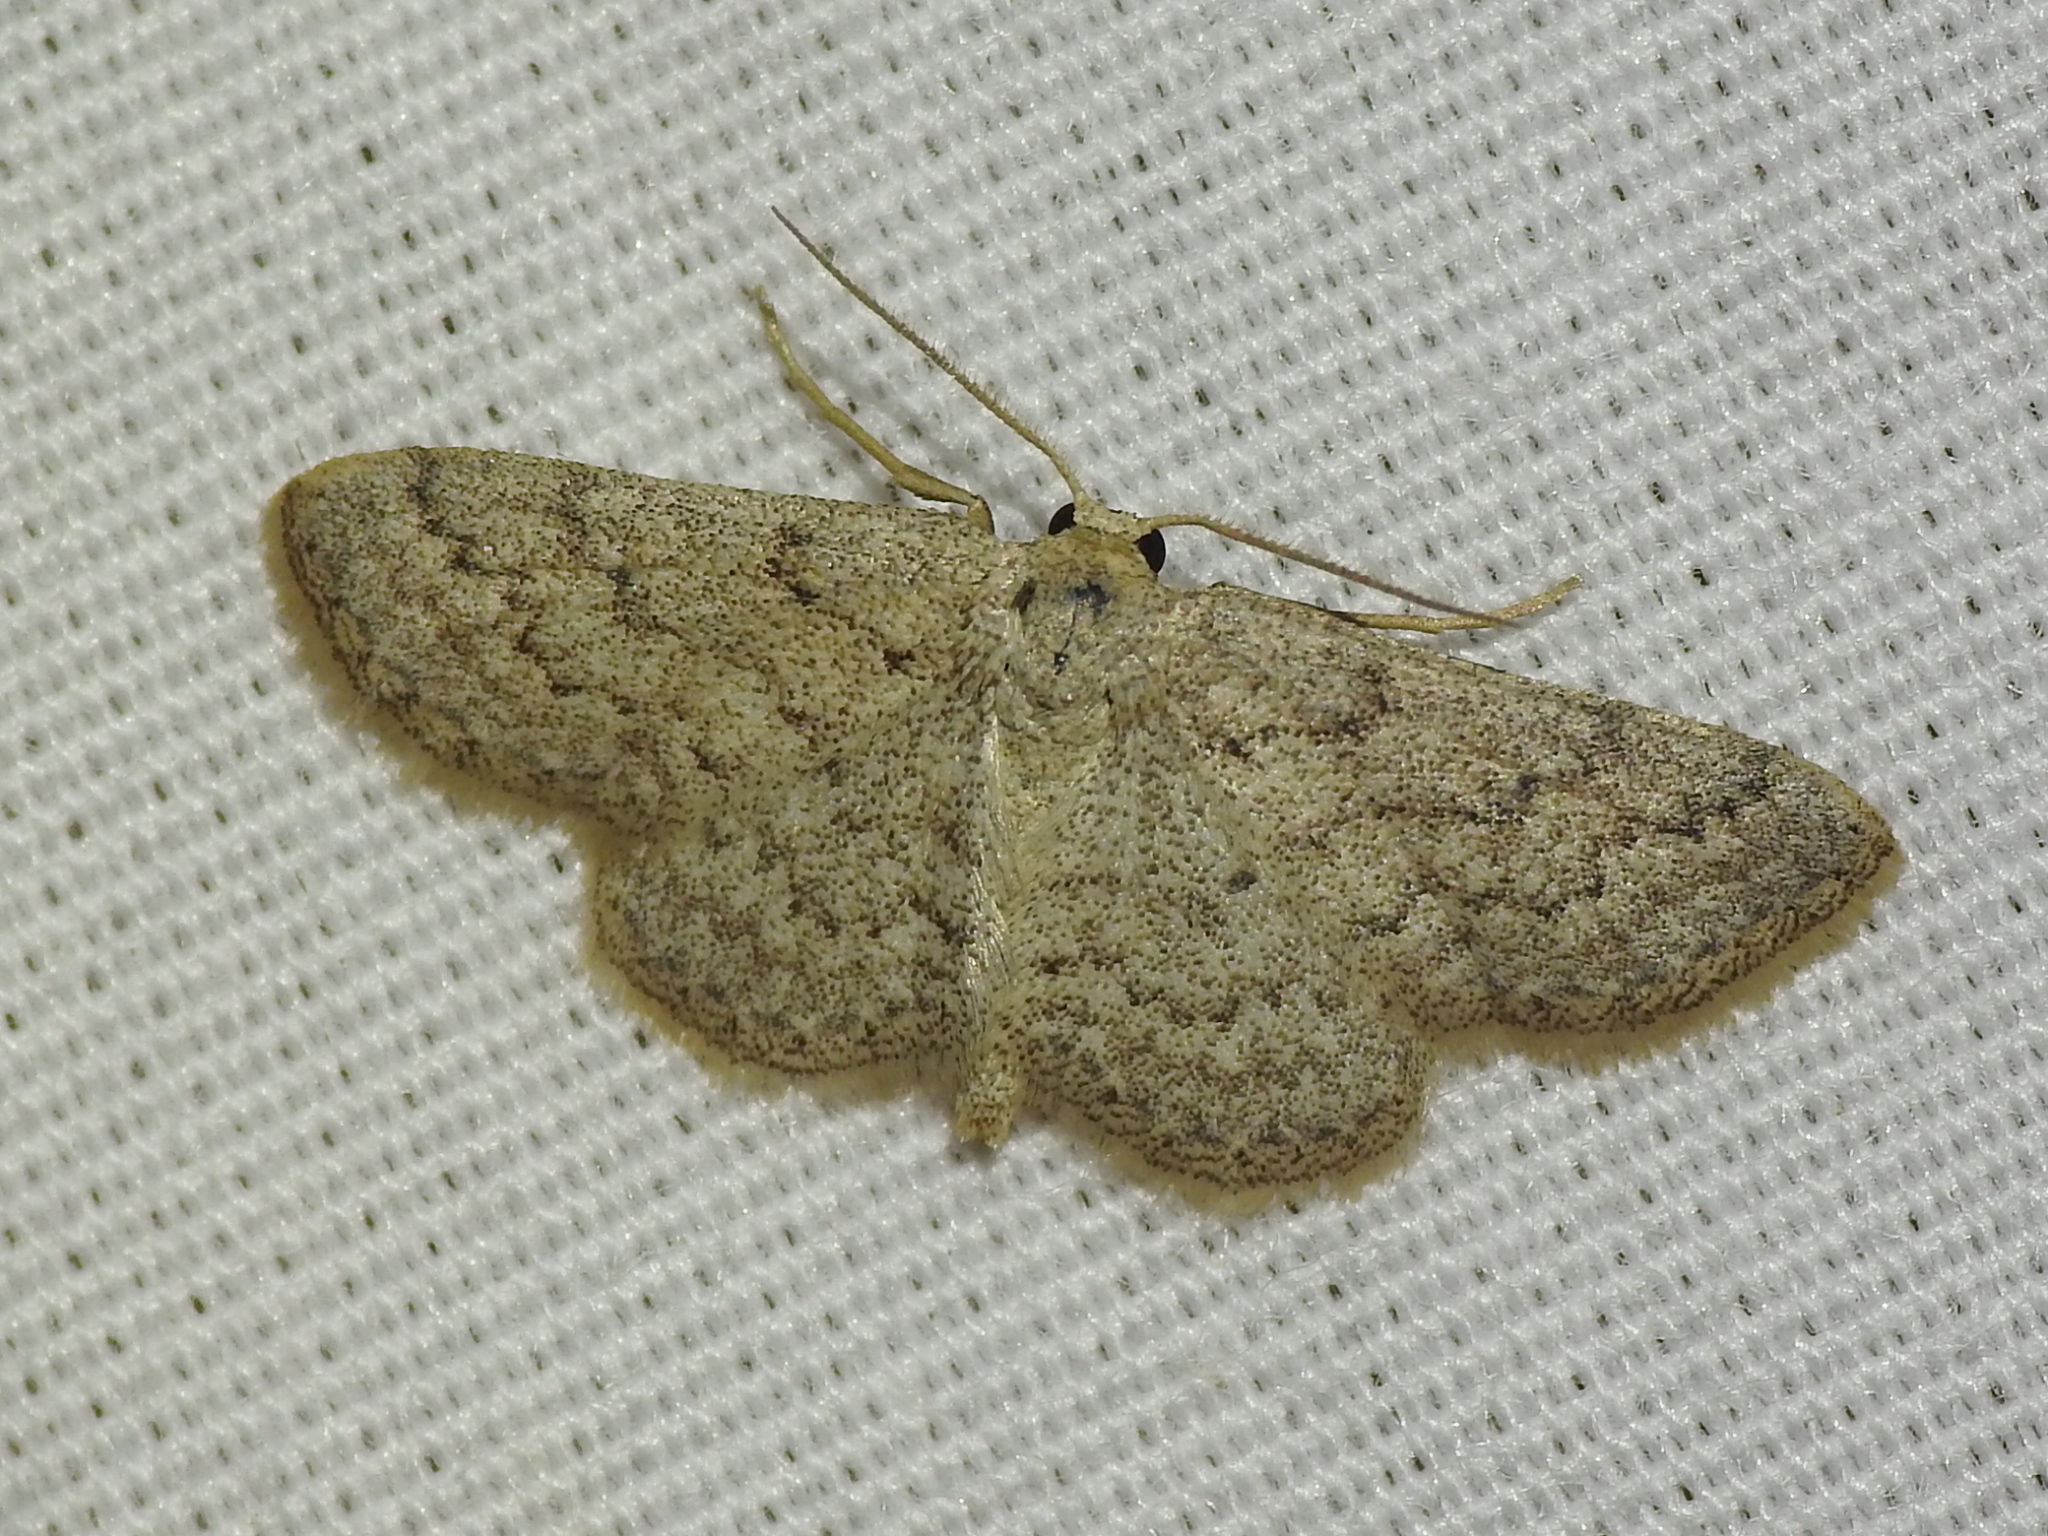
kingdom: Animalia
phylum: Arthropoda
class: Insecta
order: Lepidoptera
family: Geometridae
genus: Lobocleta
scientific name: Lobocleta ossularia
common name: Drab brown wave
